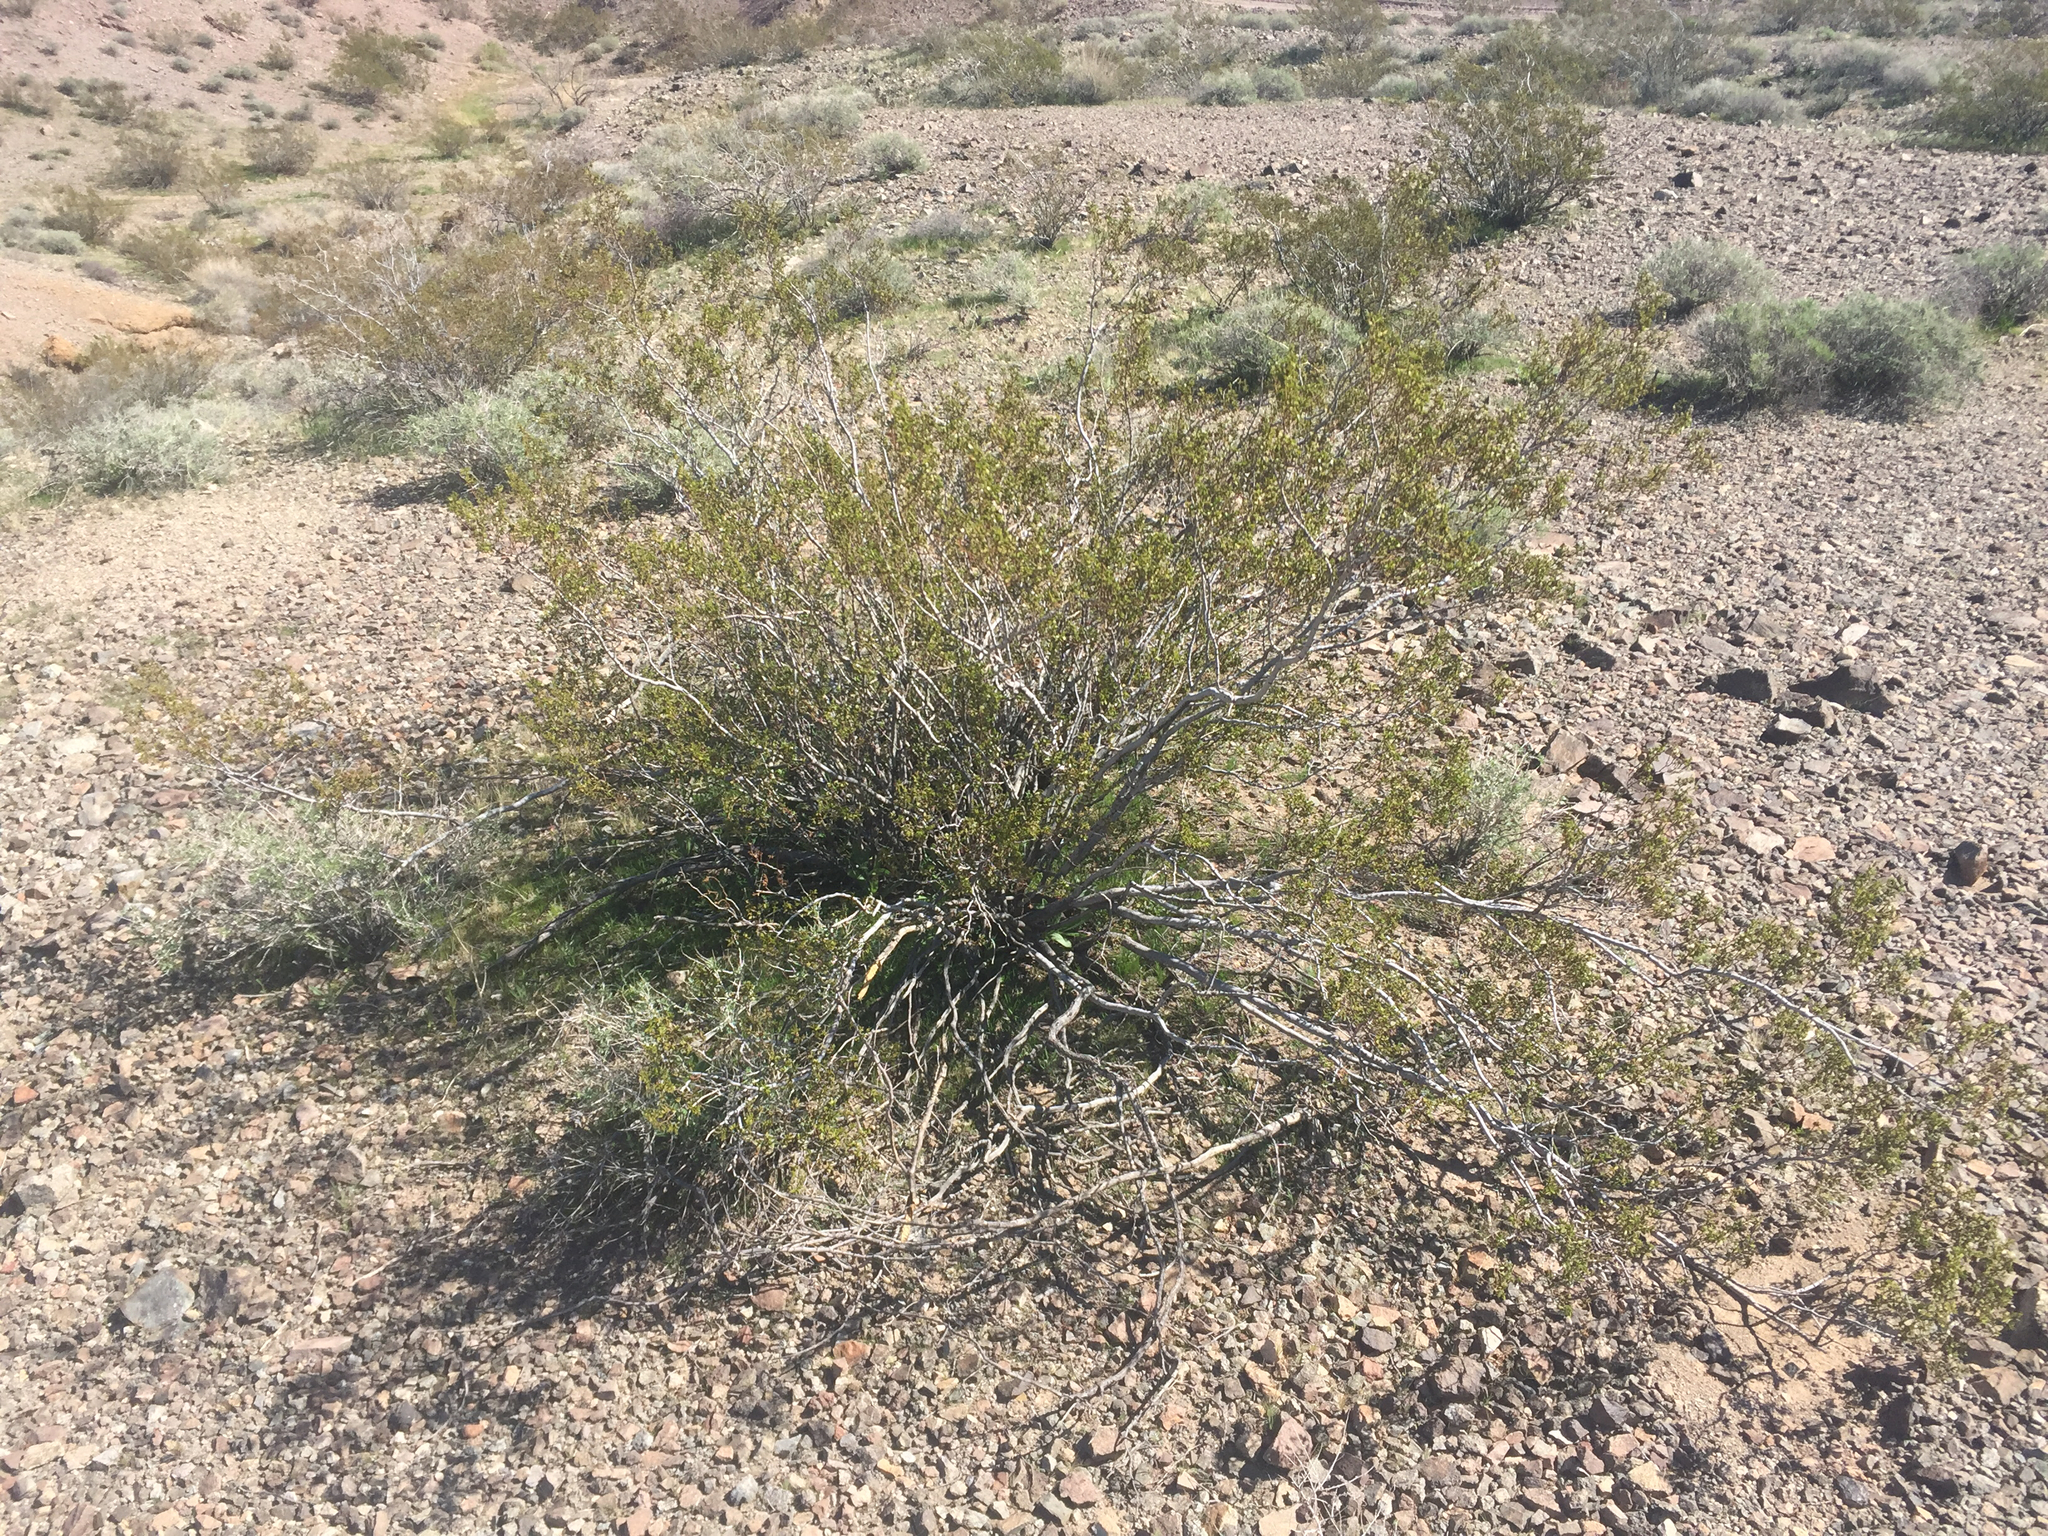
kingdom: Plantae
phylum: Tracheophyta
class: Magnoliopsida
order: Zygophyllales
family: Zygophyllaceae
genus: Larrea
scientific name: Larrea tridentata
